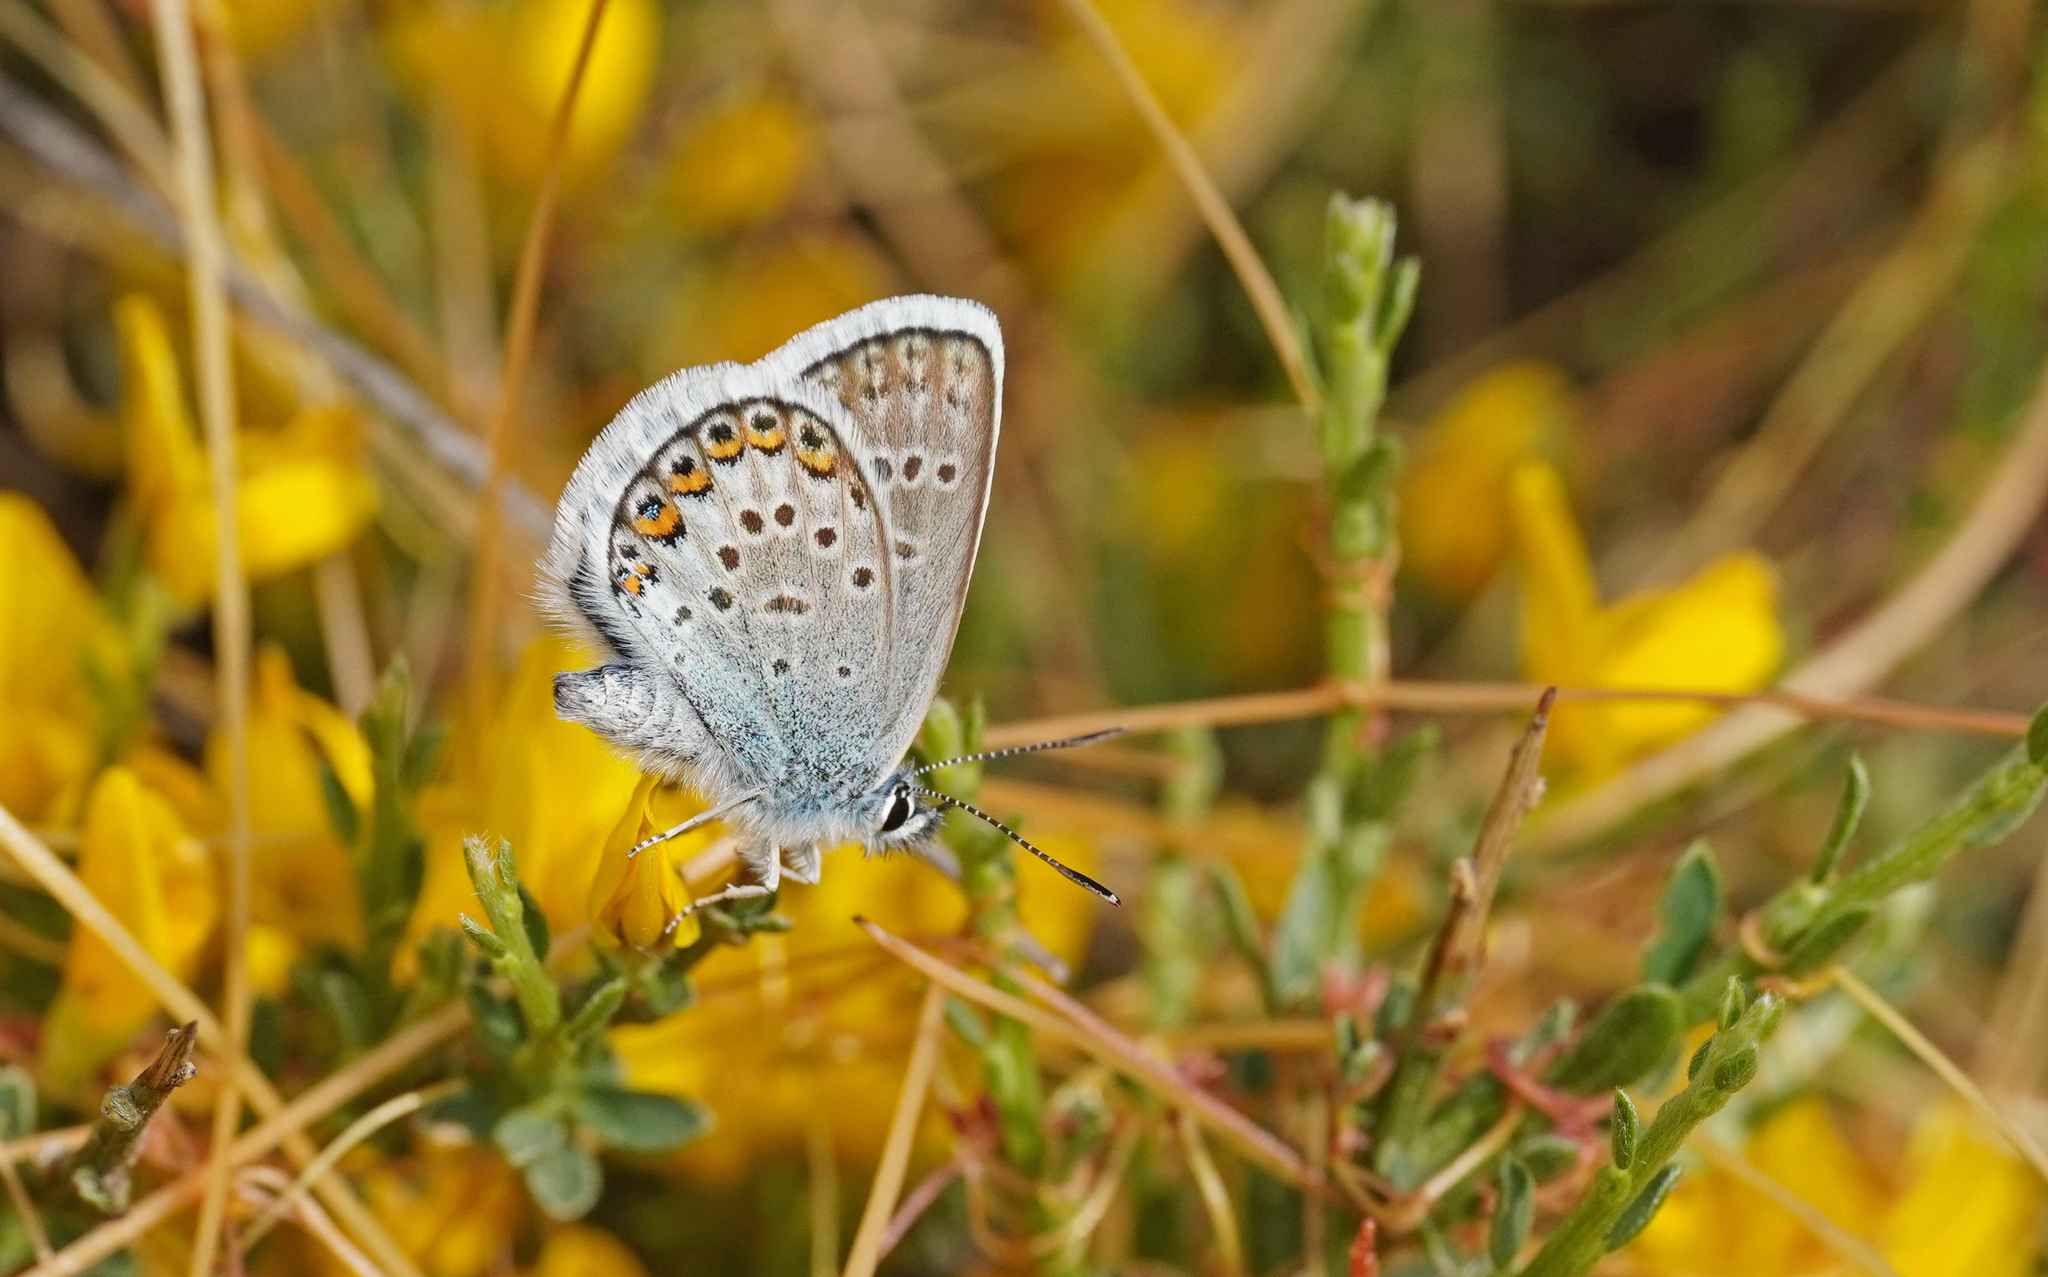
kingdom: Animalia
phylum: Arthropoda
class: Insecta
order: Lepidoptera
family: Lycaenidae
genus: Plebejus
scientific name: Plebejus argus
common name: Silver-studded blue
